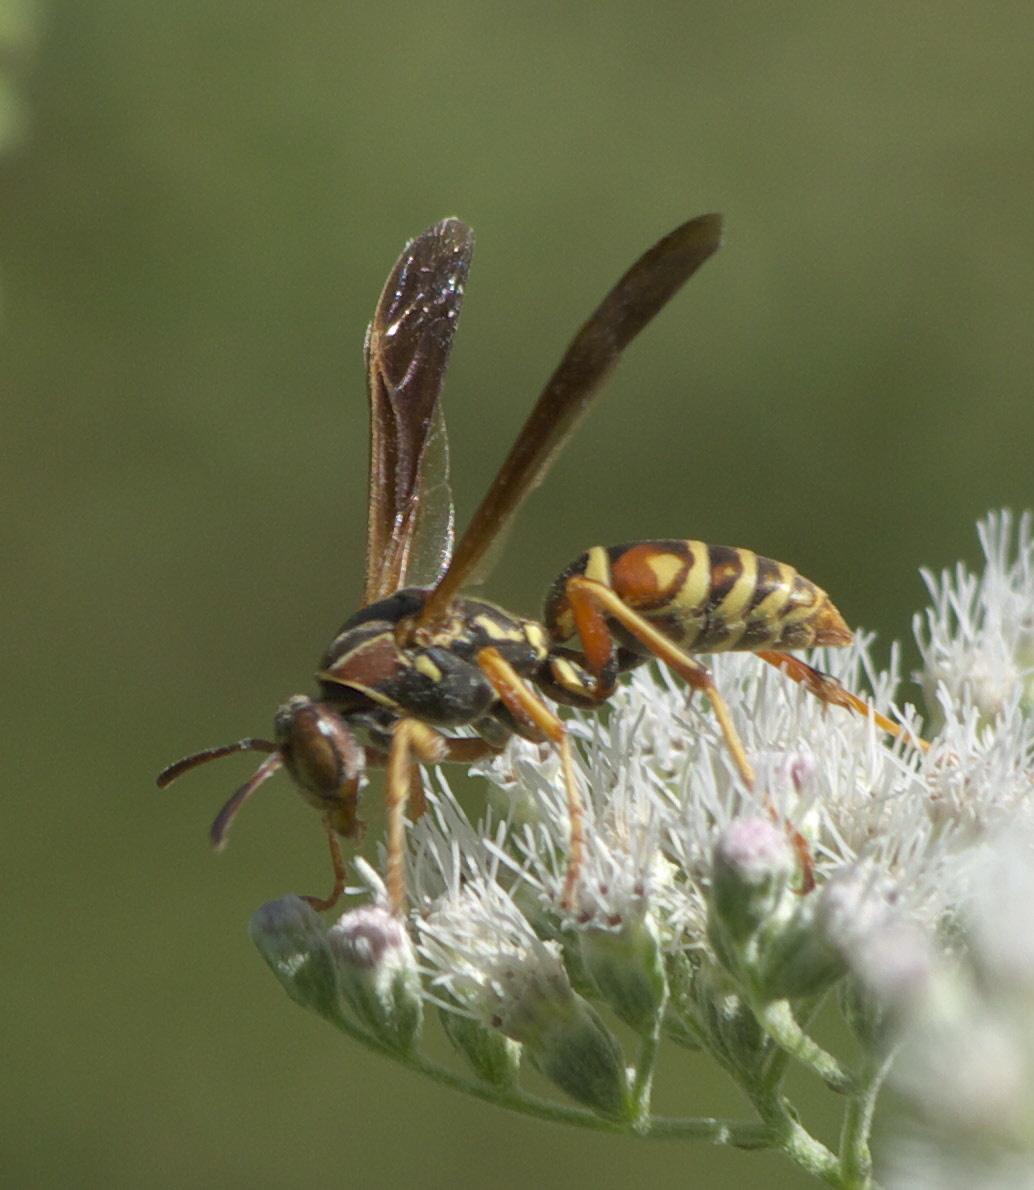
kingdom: Animalia
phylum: Arthropoda
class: Insecta
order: Hymenoptera
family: Eumenidae
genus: Polistes
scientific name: Polistes fuscatus
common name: Dark paper wasp
